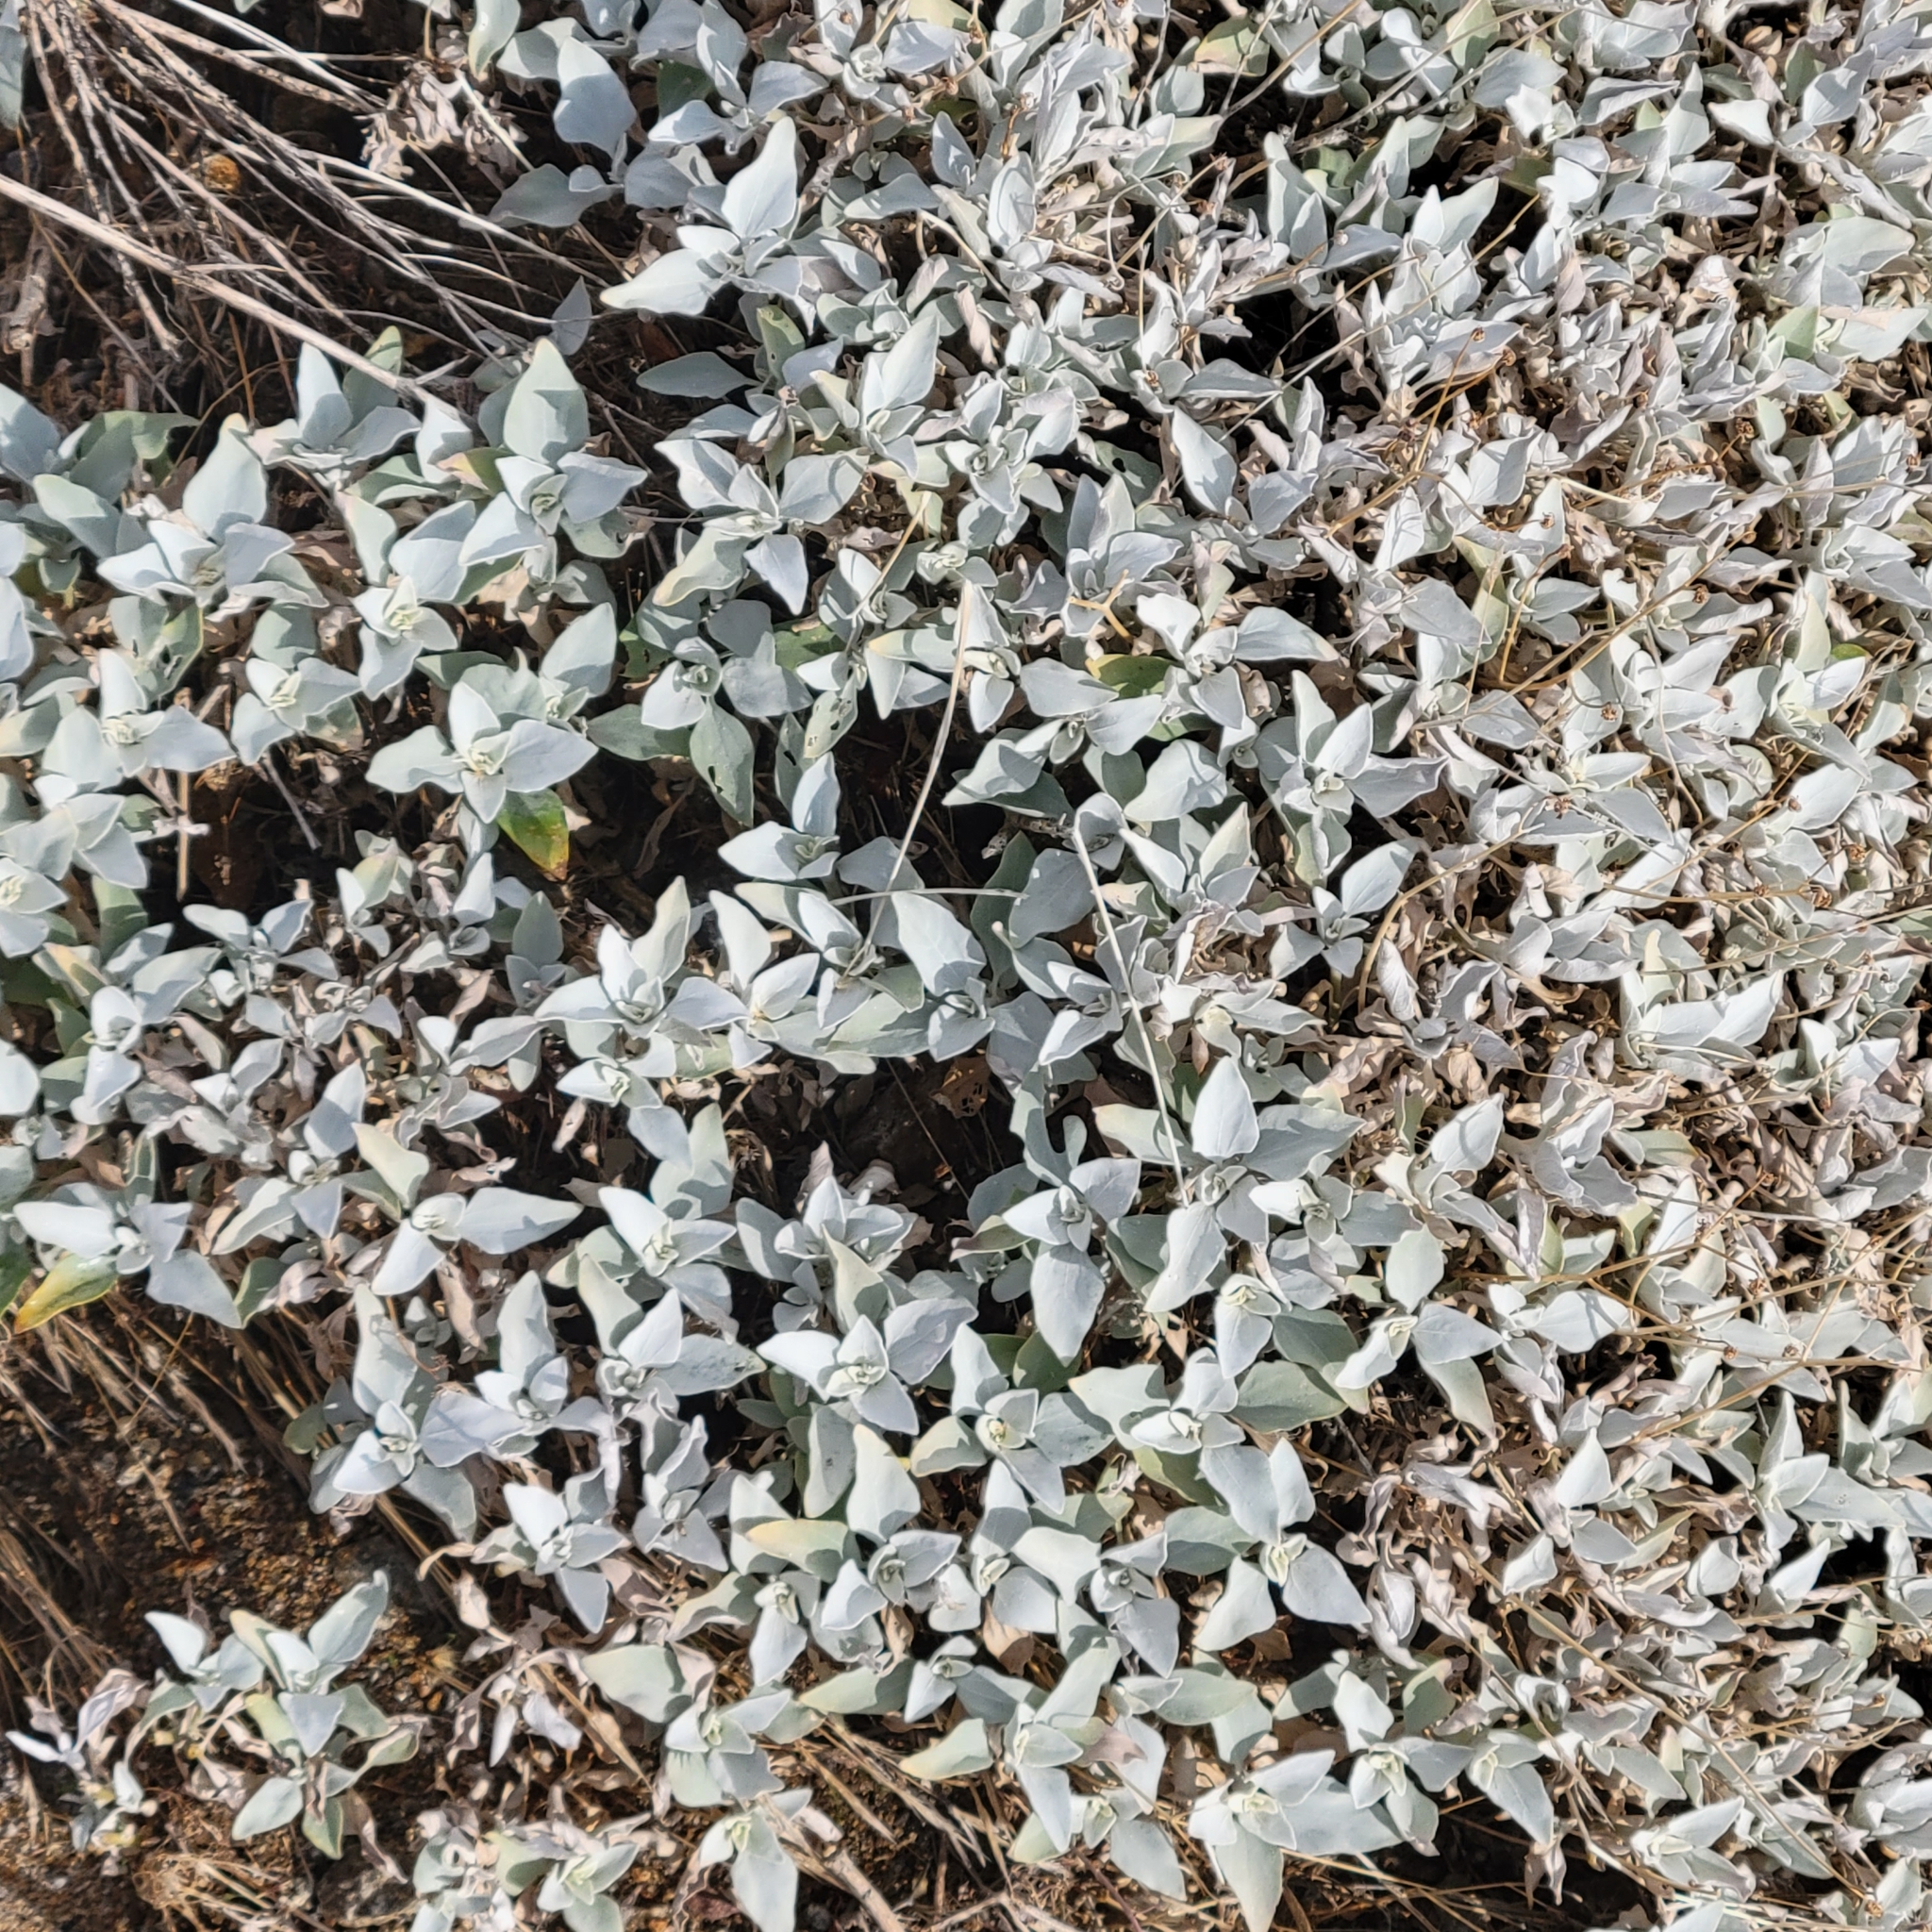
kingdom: Plantae
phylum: Tracheophyta
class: Magnoliopsida
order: Asterales
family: Asteraceae
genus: Encelia
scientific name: Encelia farinosa
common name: Brittlebush
